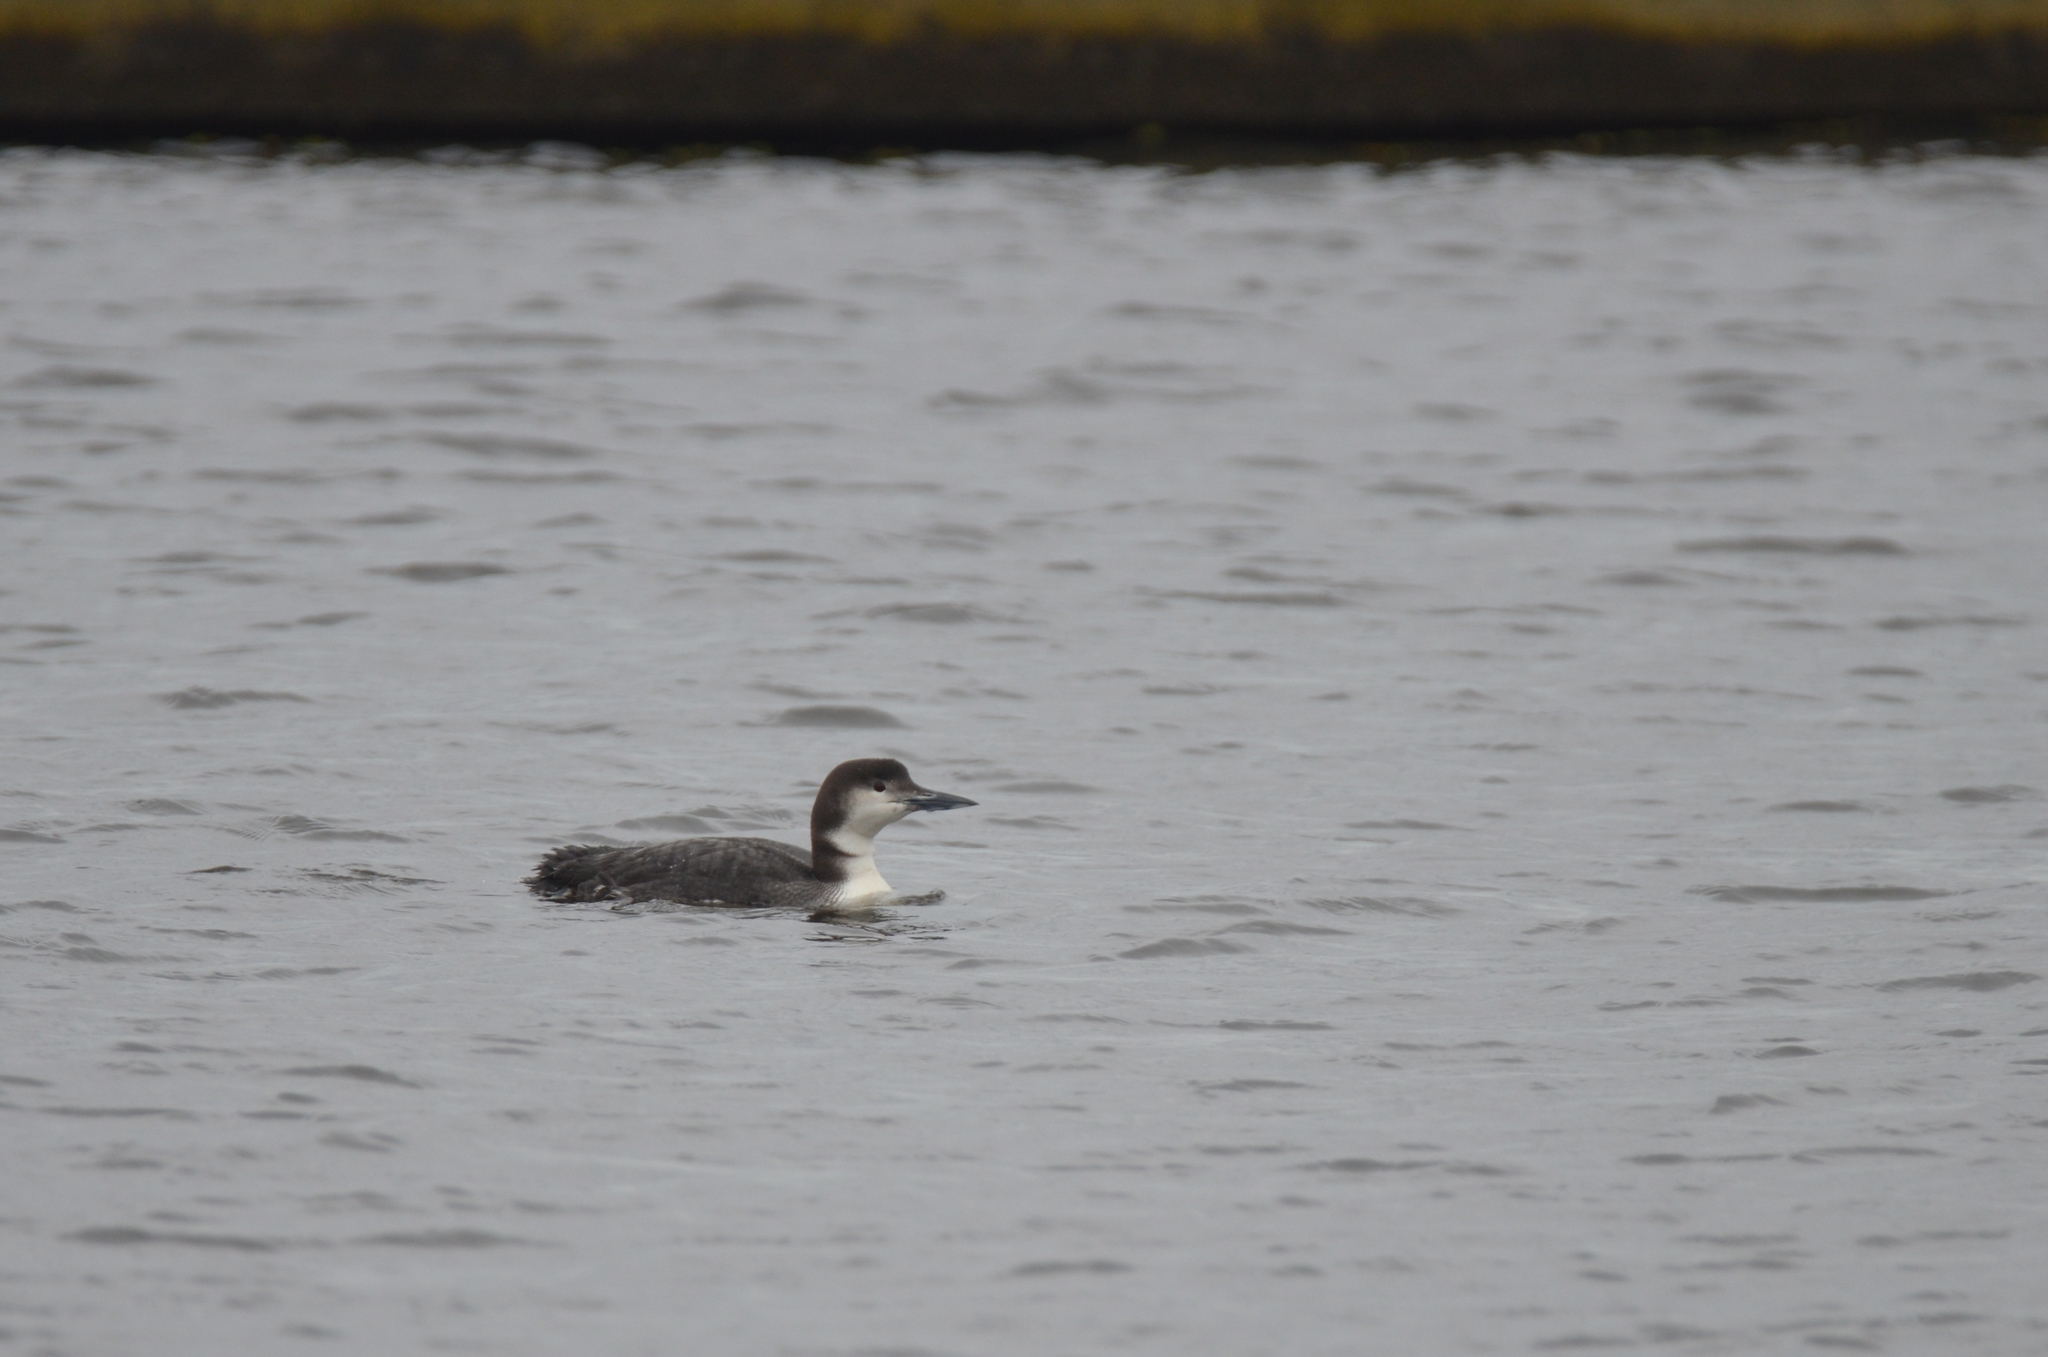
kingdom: Animalia
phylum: Chordata
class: Aves
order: Gaviiformes
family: Gaviidae
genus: Gavia
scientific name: Gavia immer
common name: Common loon
